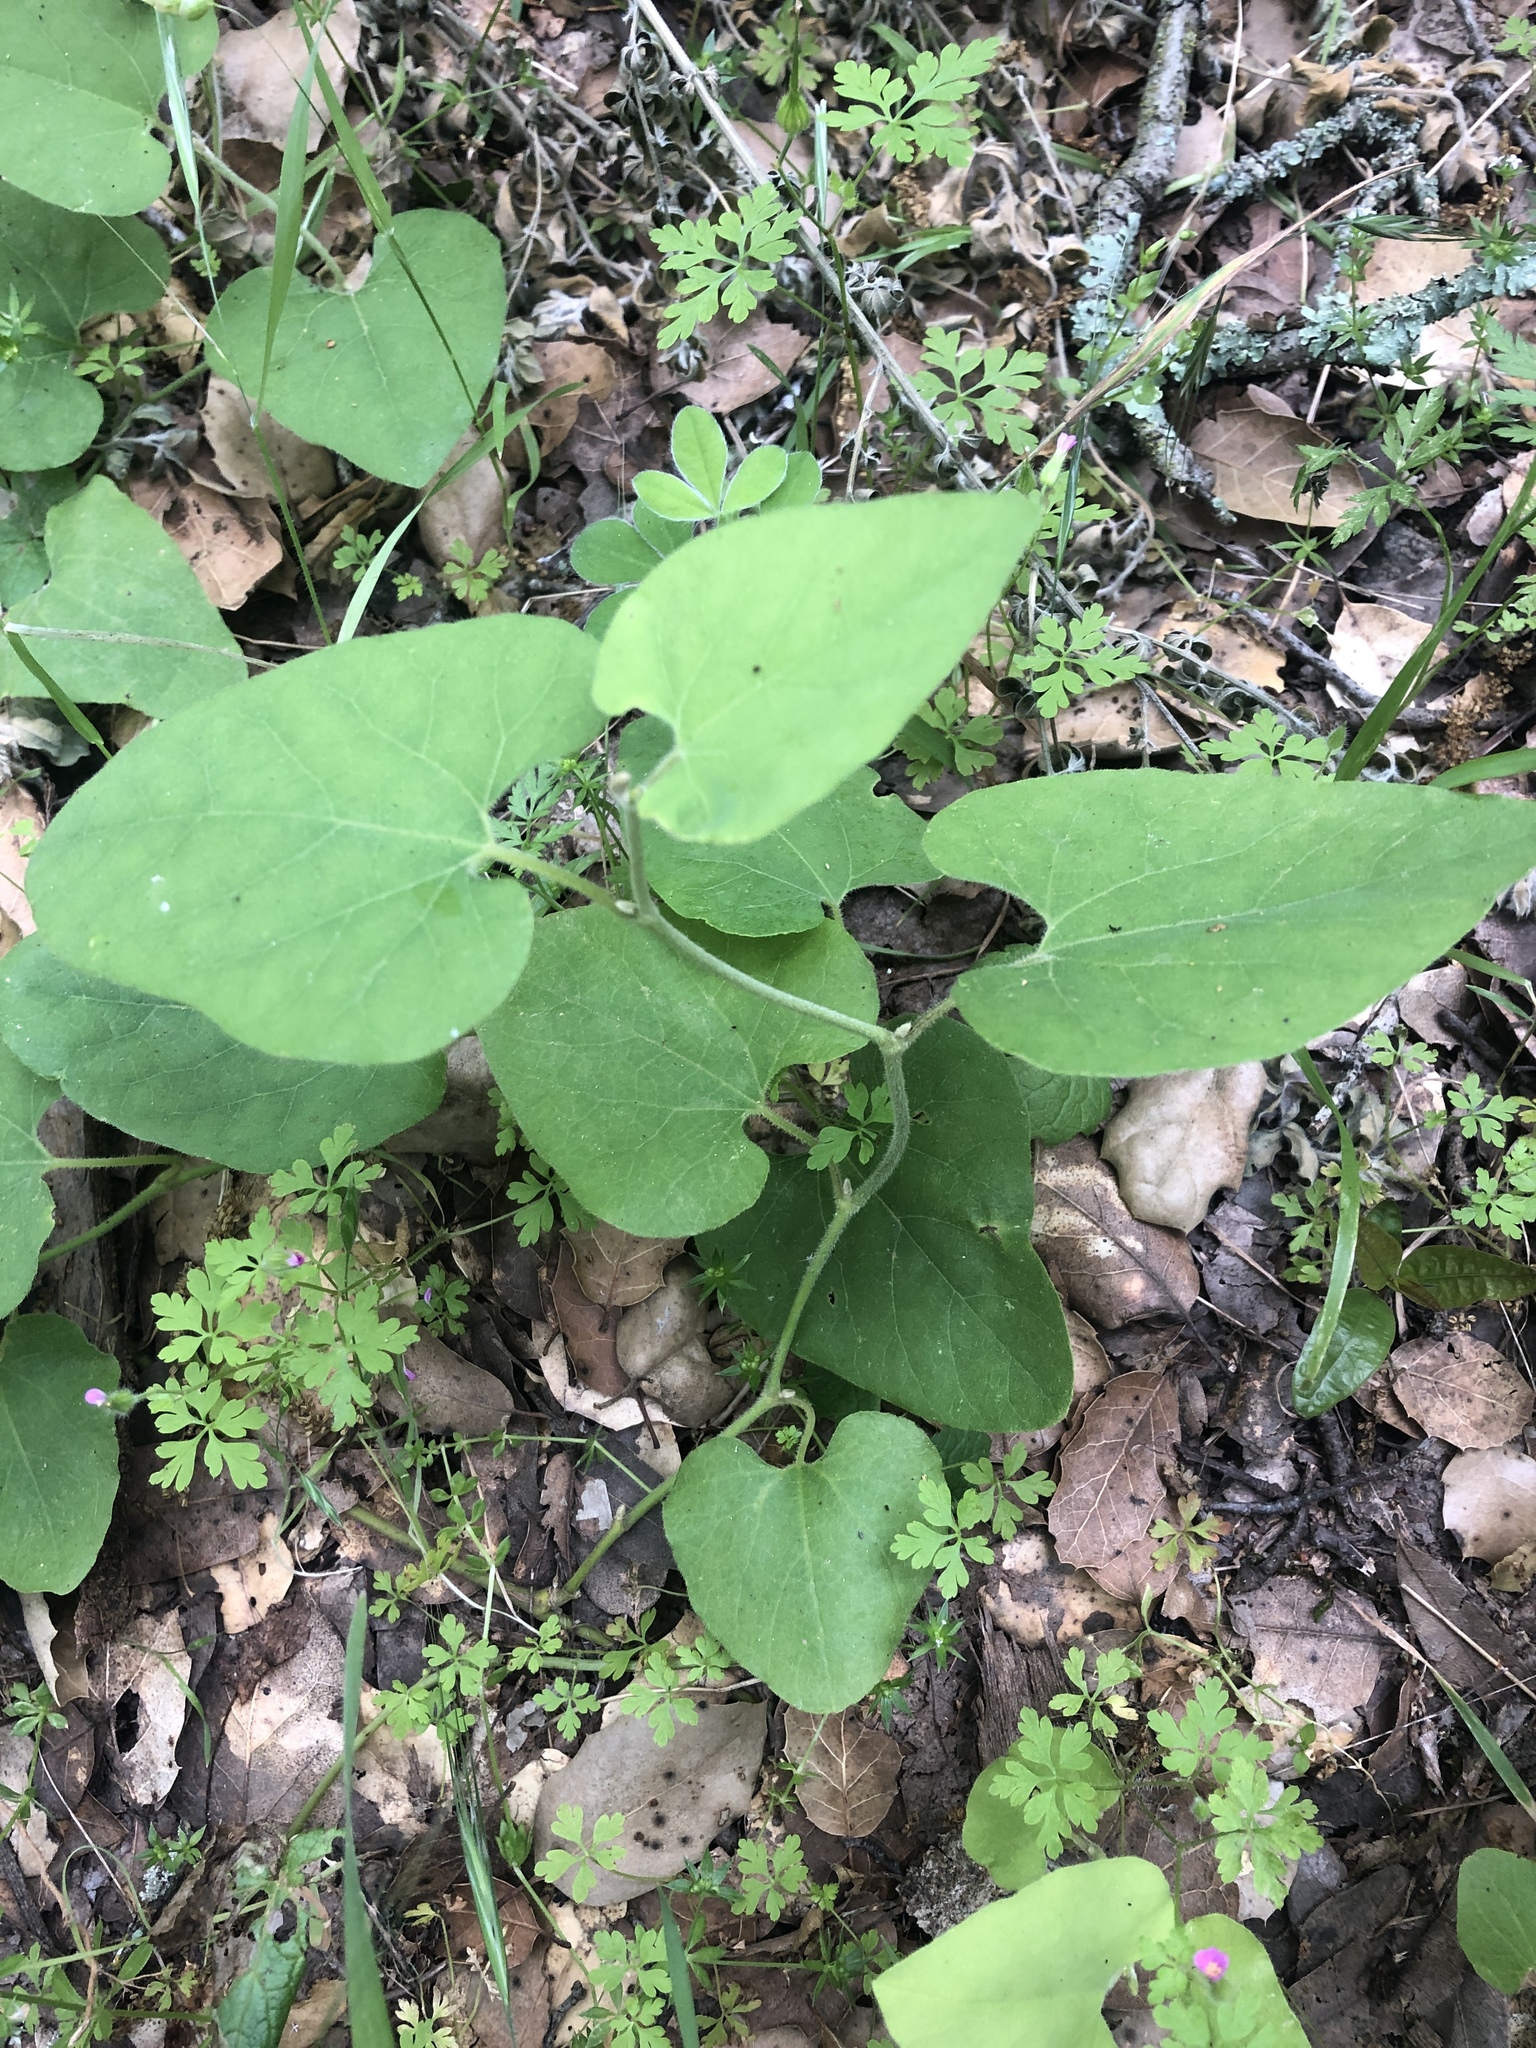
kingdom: Plantae
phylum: Tracheophyta
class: Magnoliopsida
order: Piperales
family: Aristolochiaceae
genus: Isotrema
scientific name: Isotrema californicum
